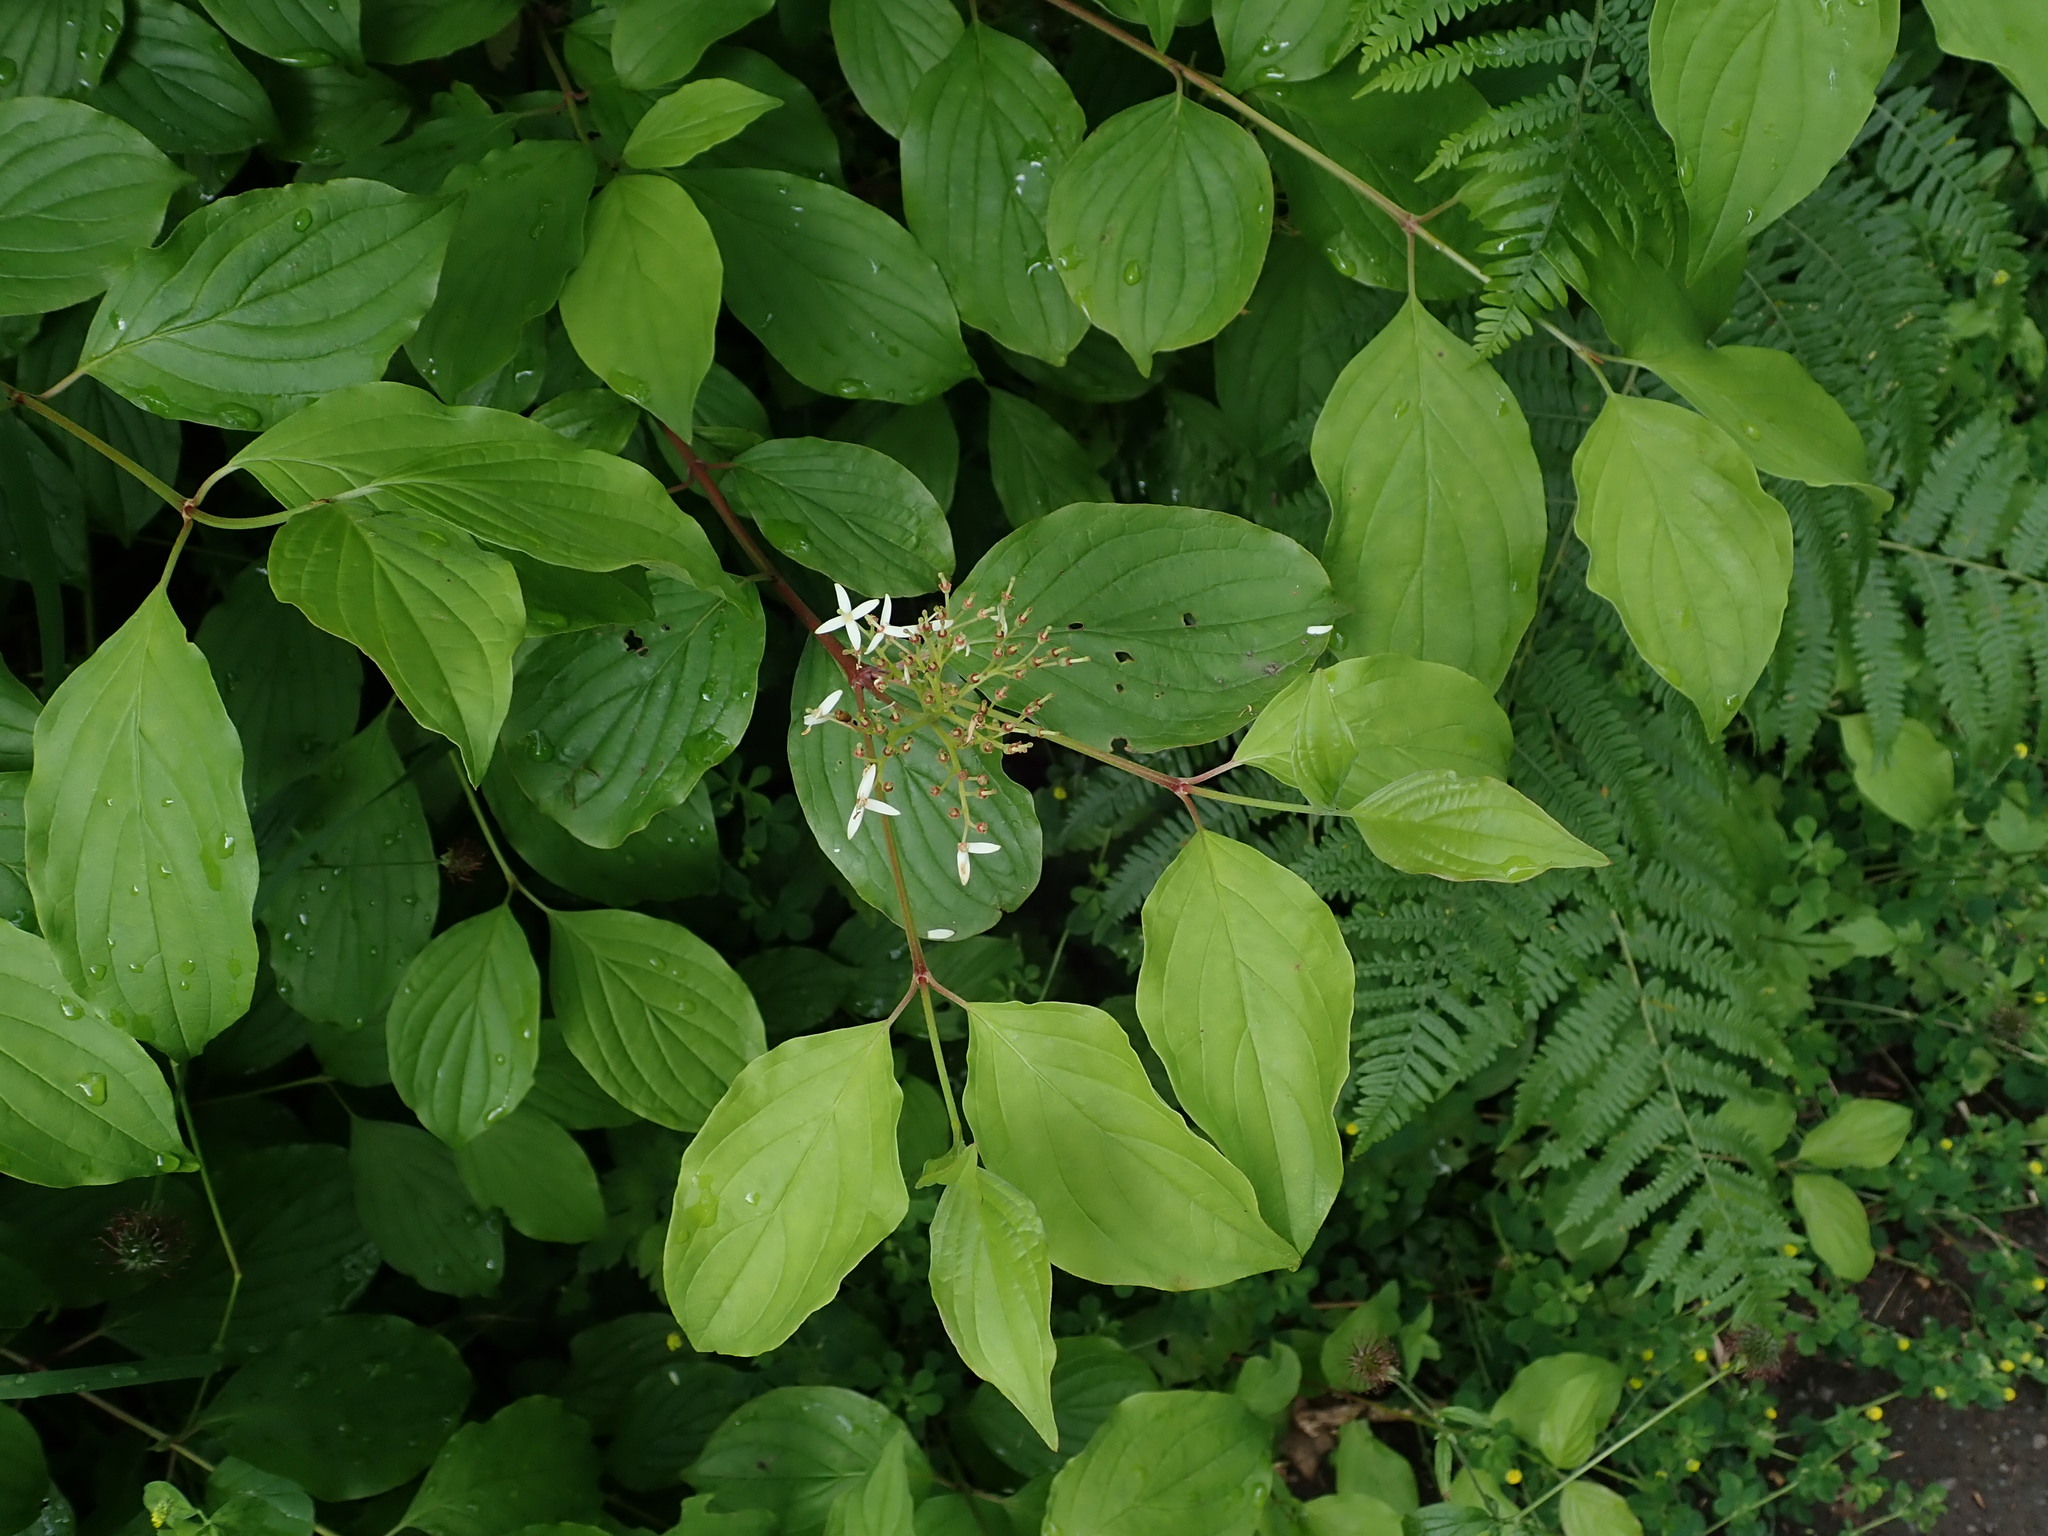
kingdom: Plantae
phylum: Tracheophyta
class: Magnoliopsida
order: Cornales
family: Cornaceae
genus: Cornus
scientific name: Cornus sanguinea
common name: Dogwood
